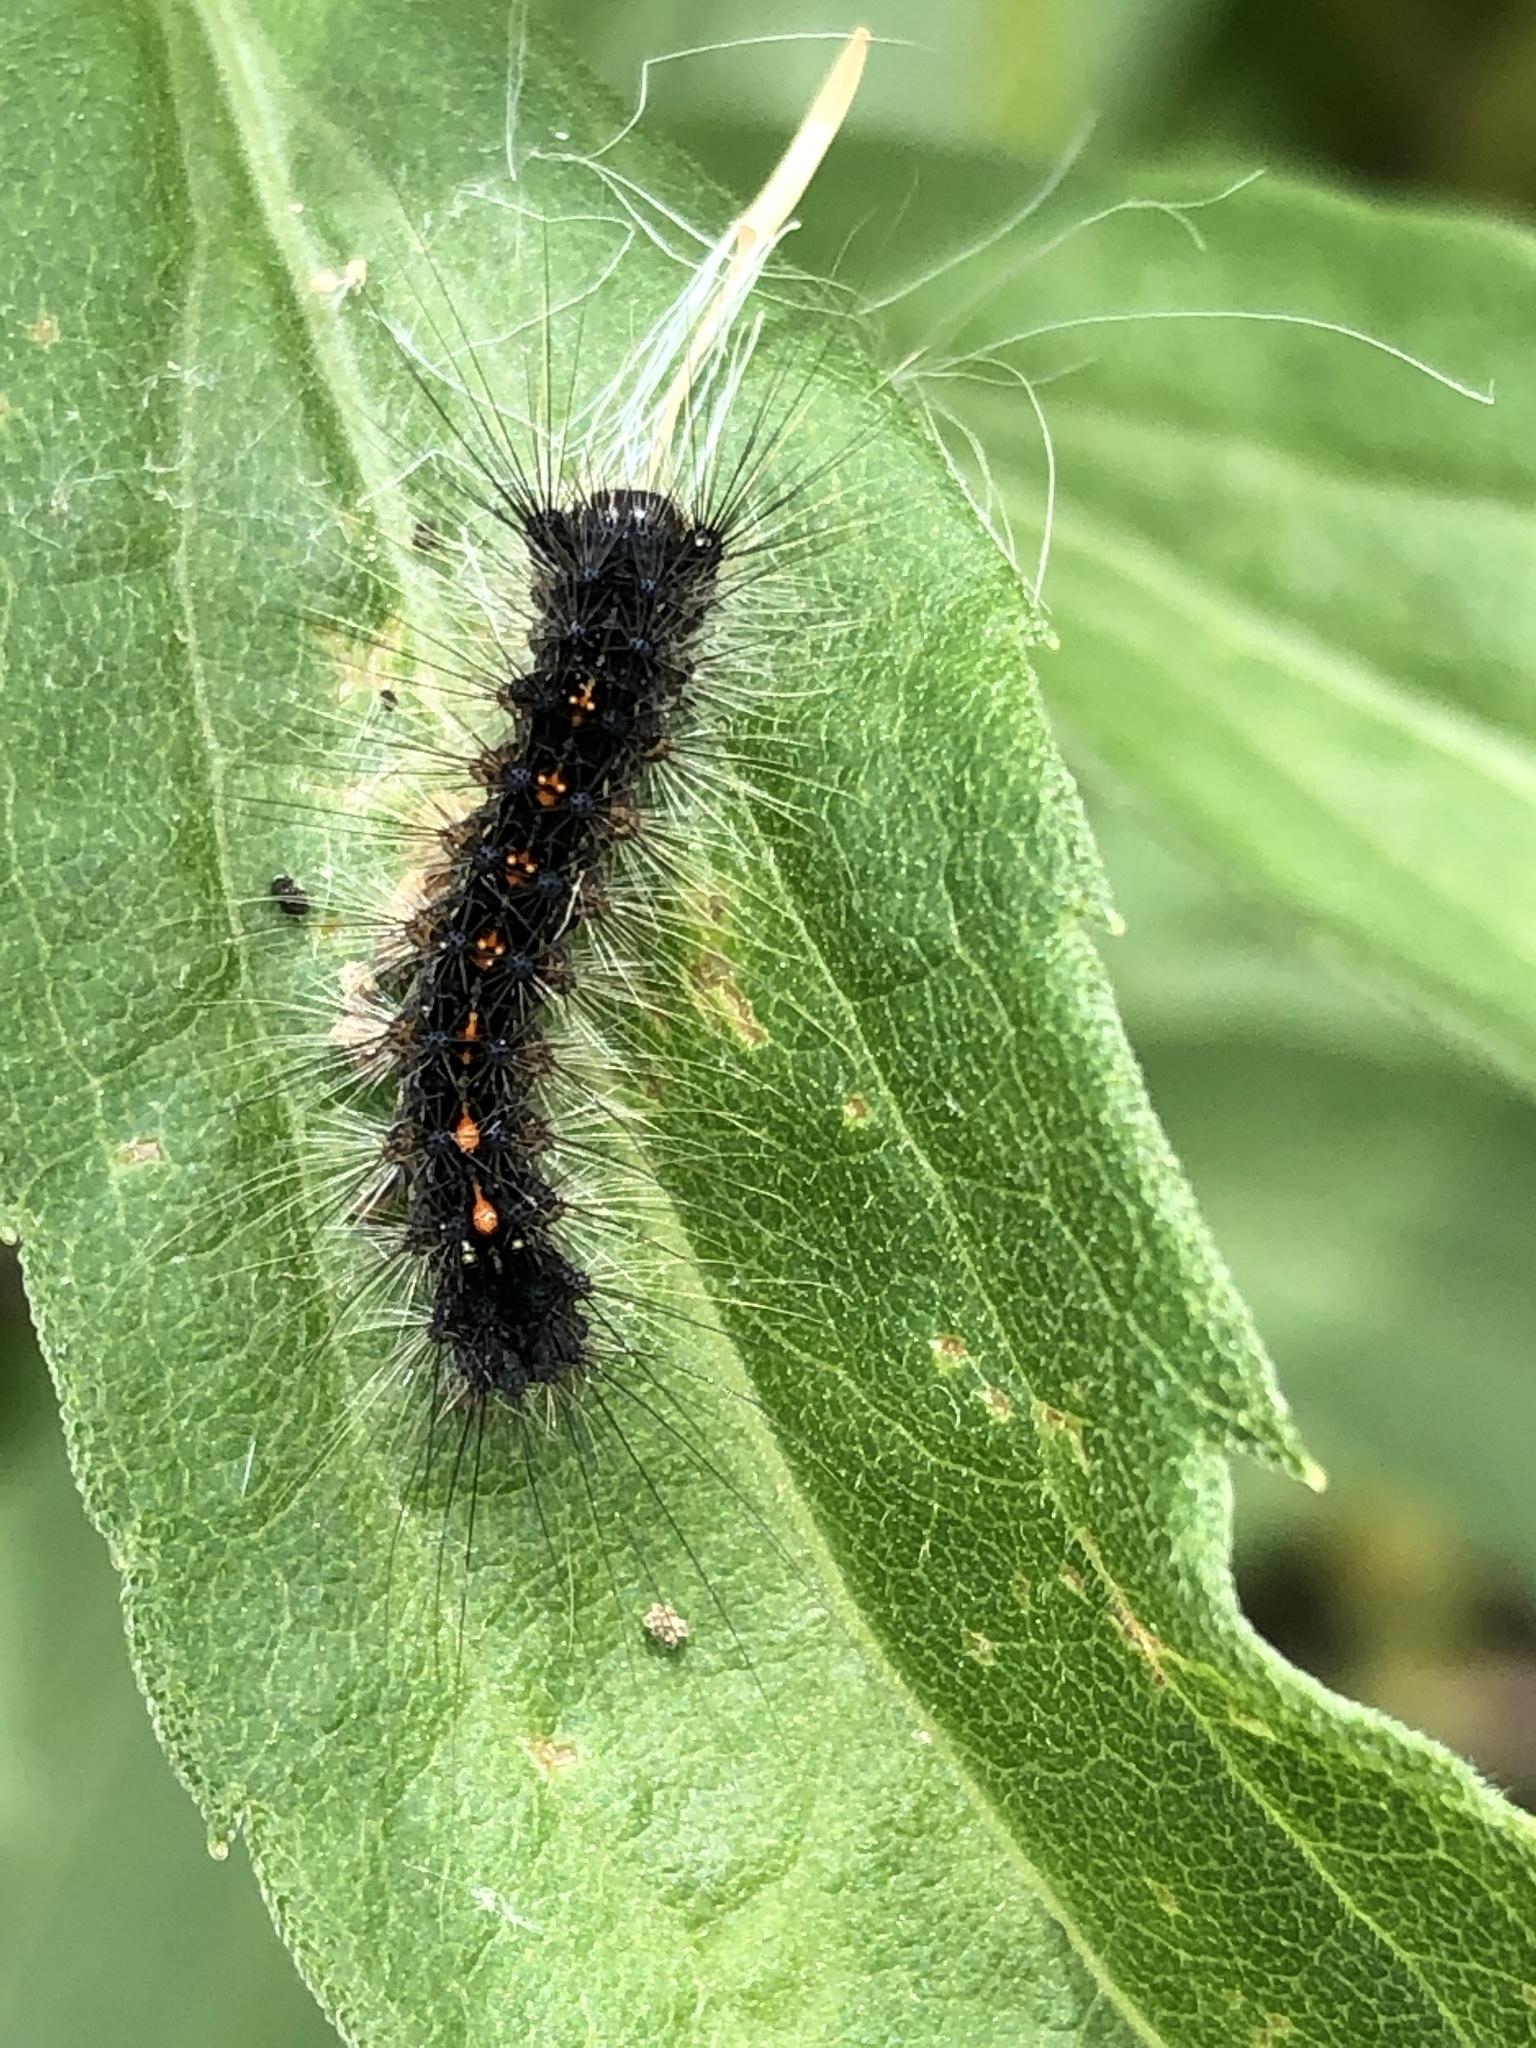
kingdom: Animalia
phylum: Arthropoda
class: Insecta
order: Lepidoptera
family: Erebidae
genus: Lymantria
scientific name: Lymantria dispar
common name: Gypsy moth
